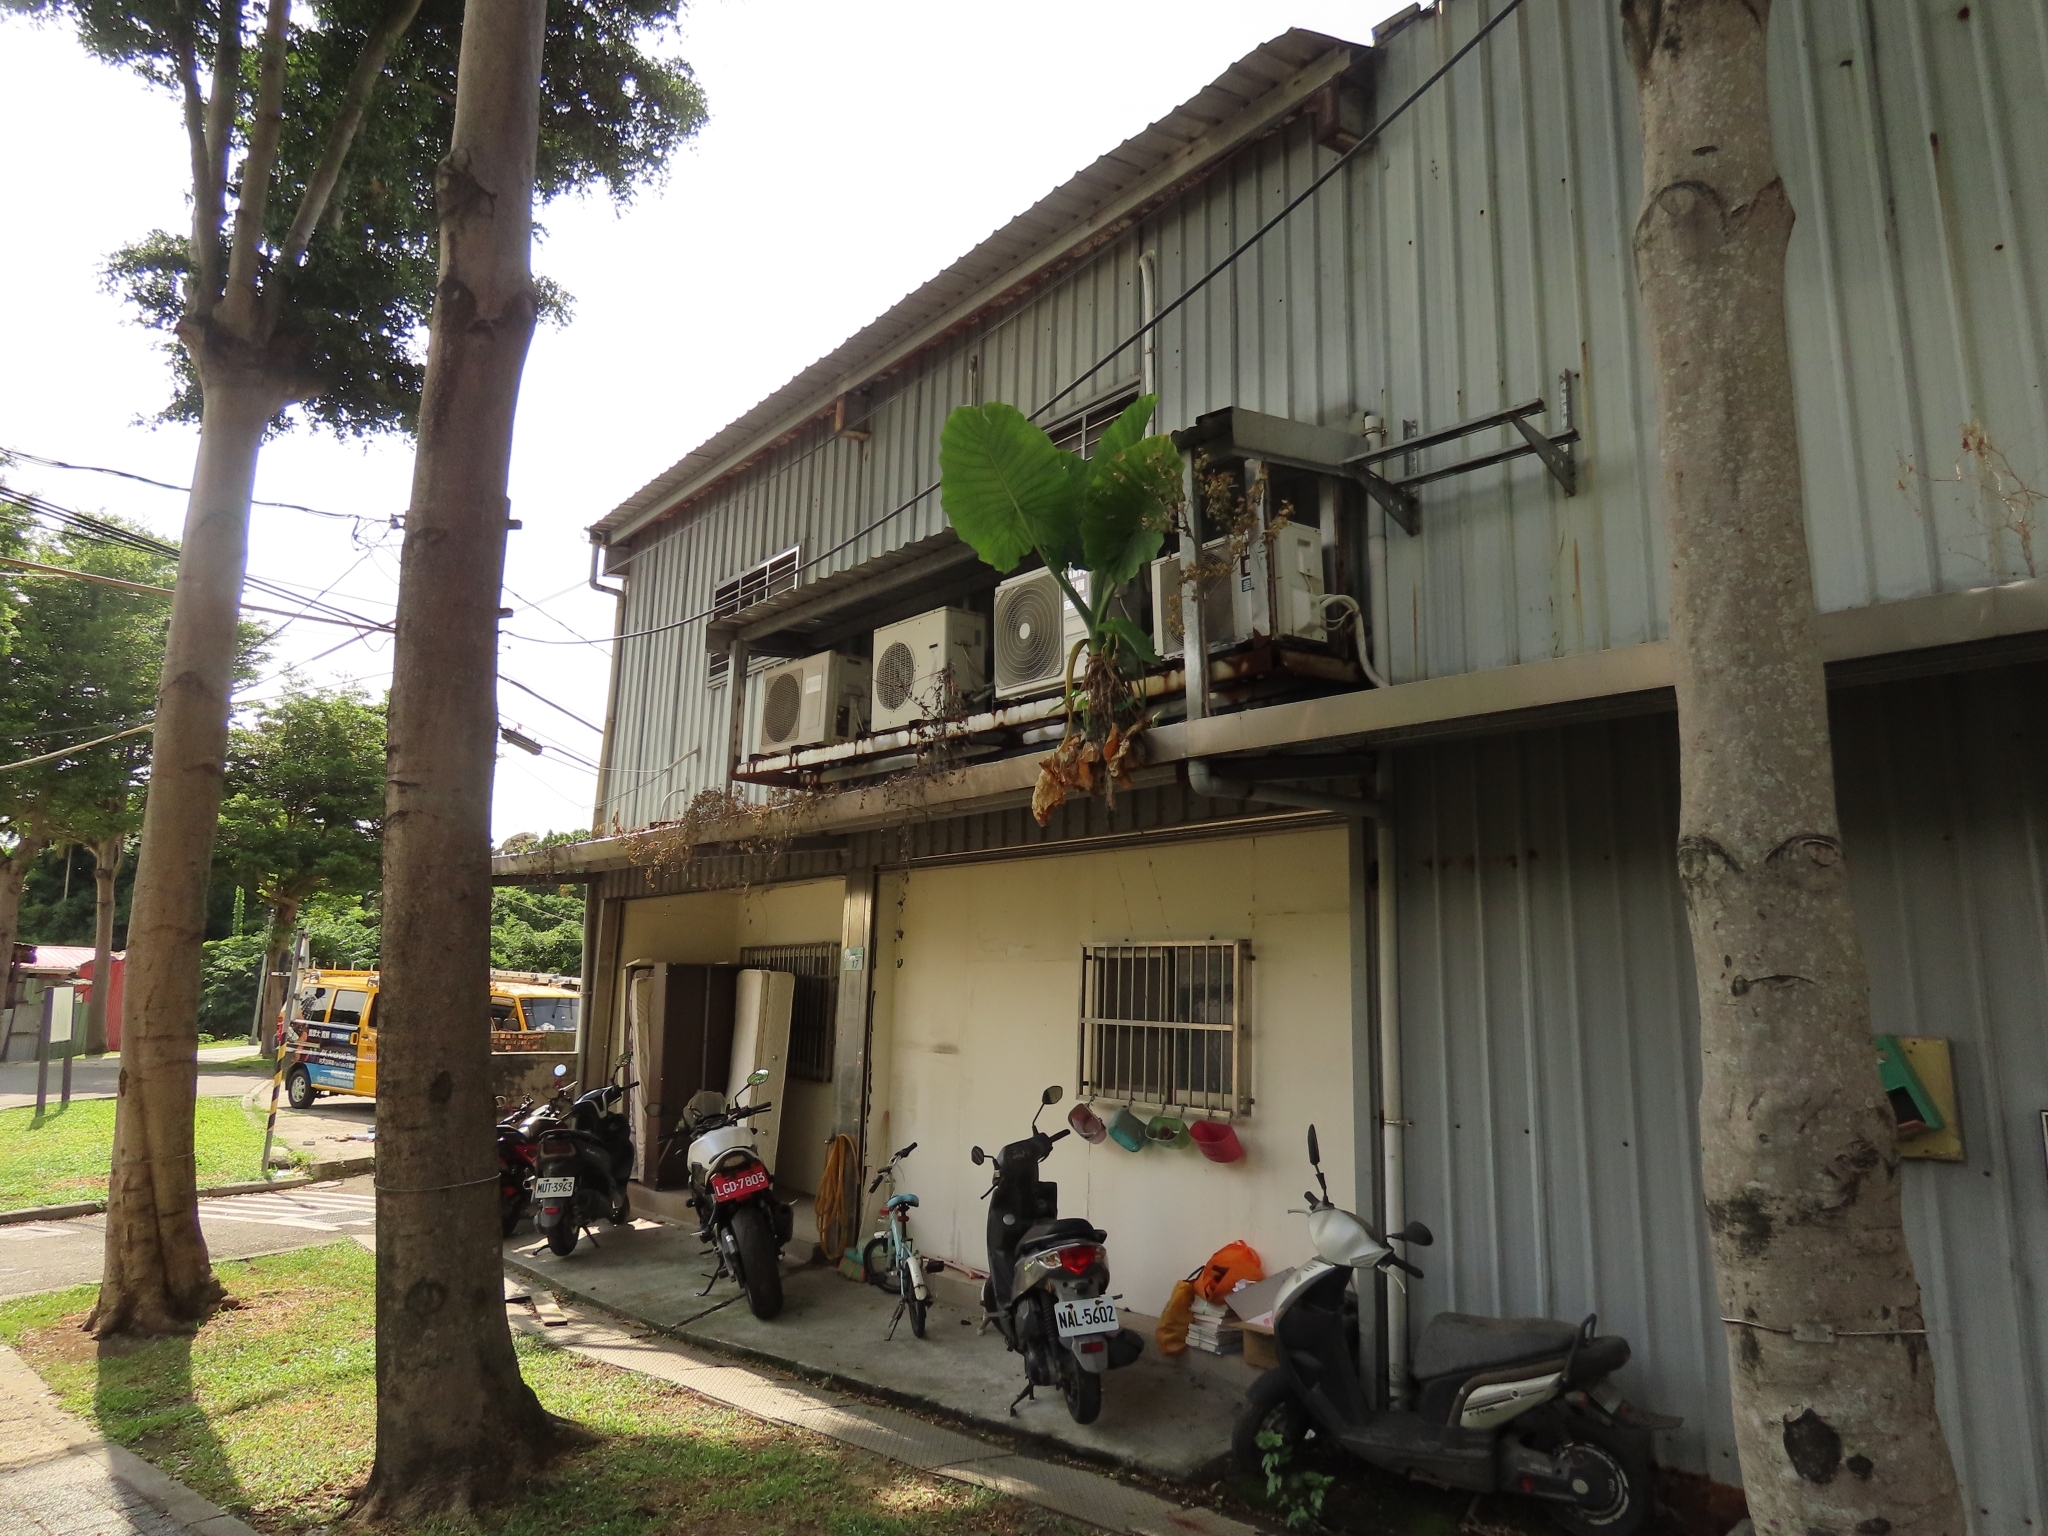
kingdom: Plantae
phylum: Tracheophyta
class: Liliopsida
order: Alismatales
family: Araceae
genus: Alocasia
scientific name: Alocasia odora
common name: Asian taro
